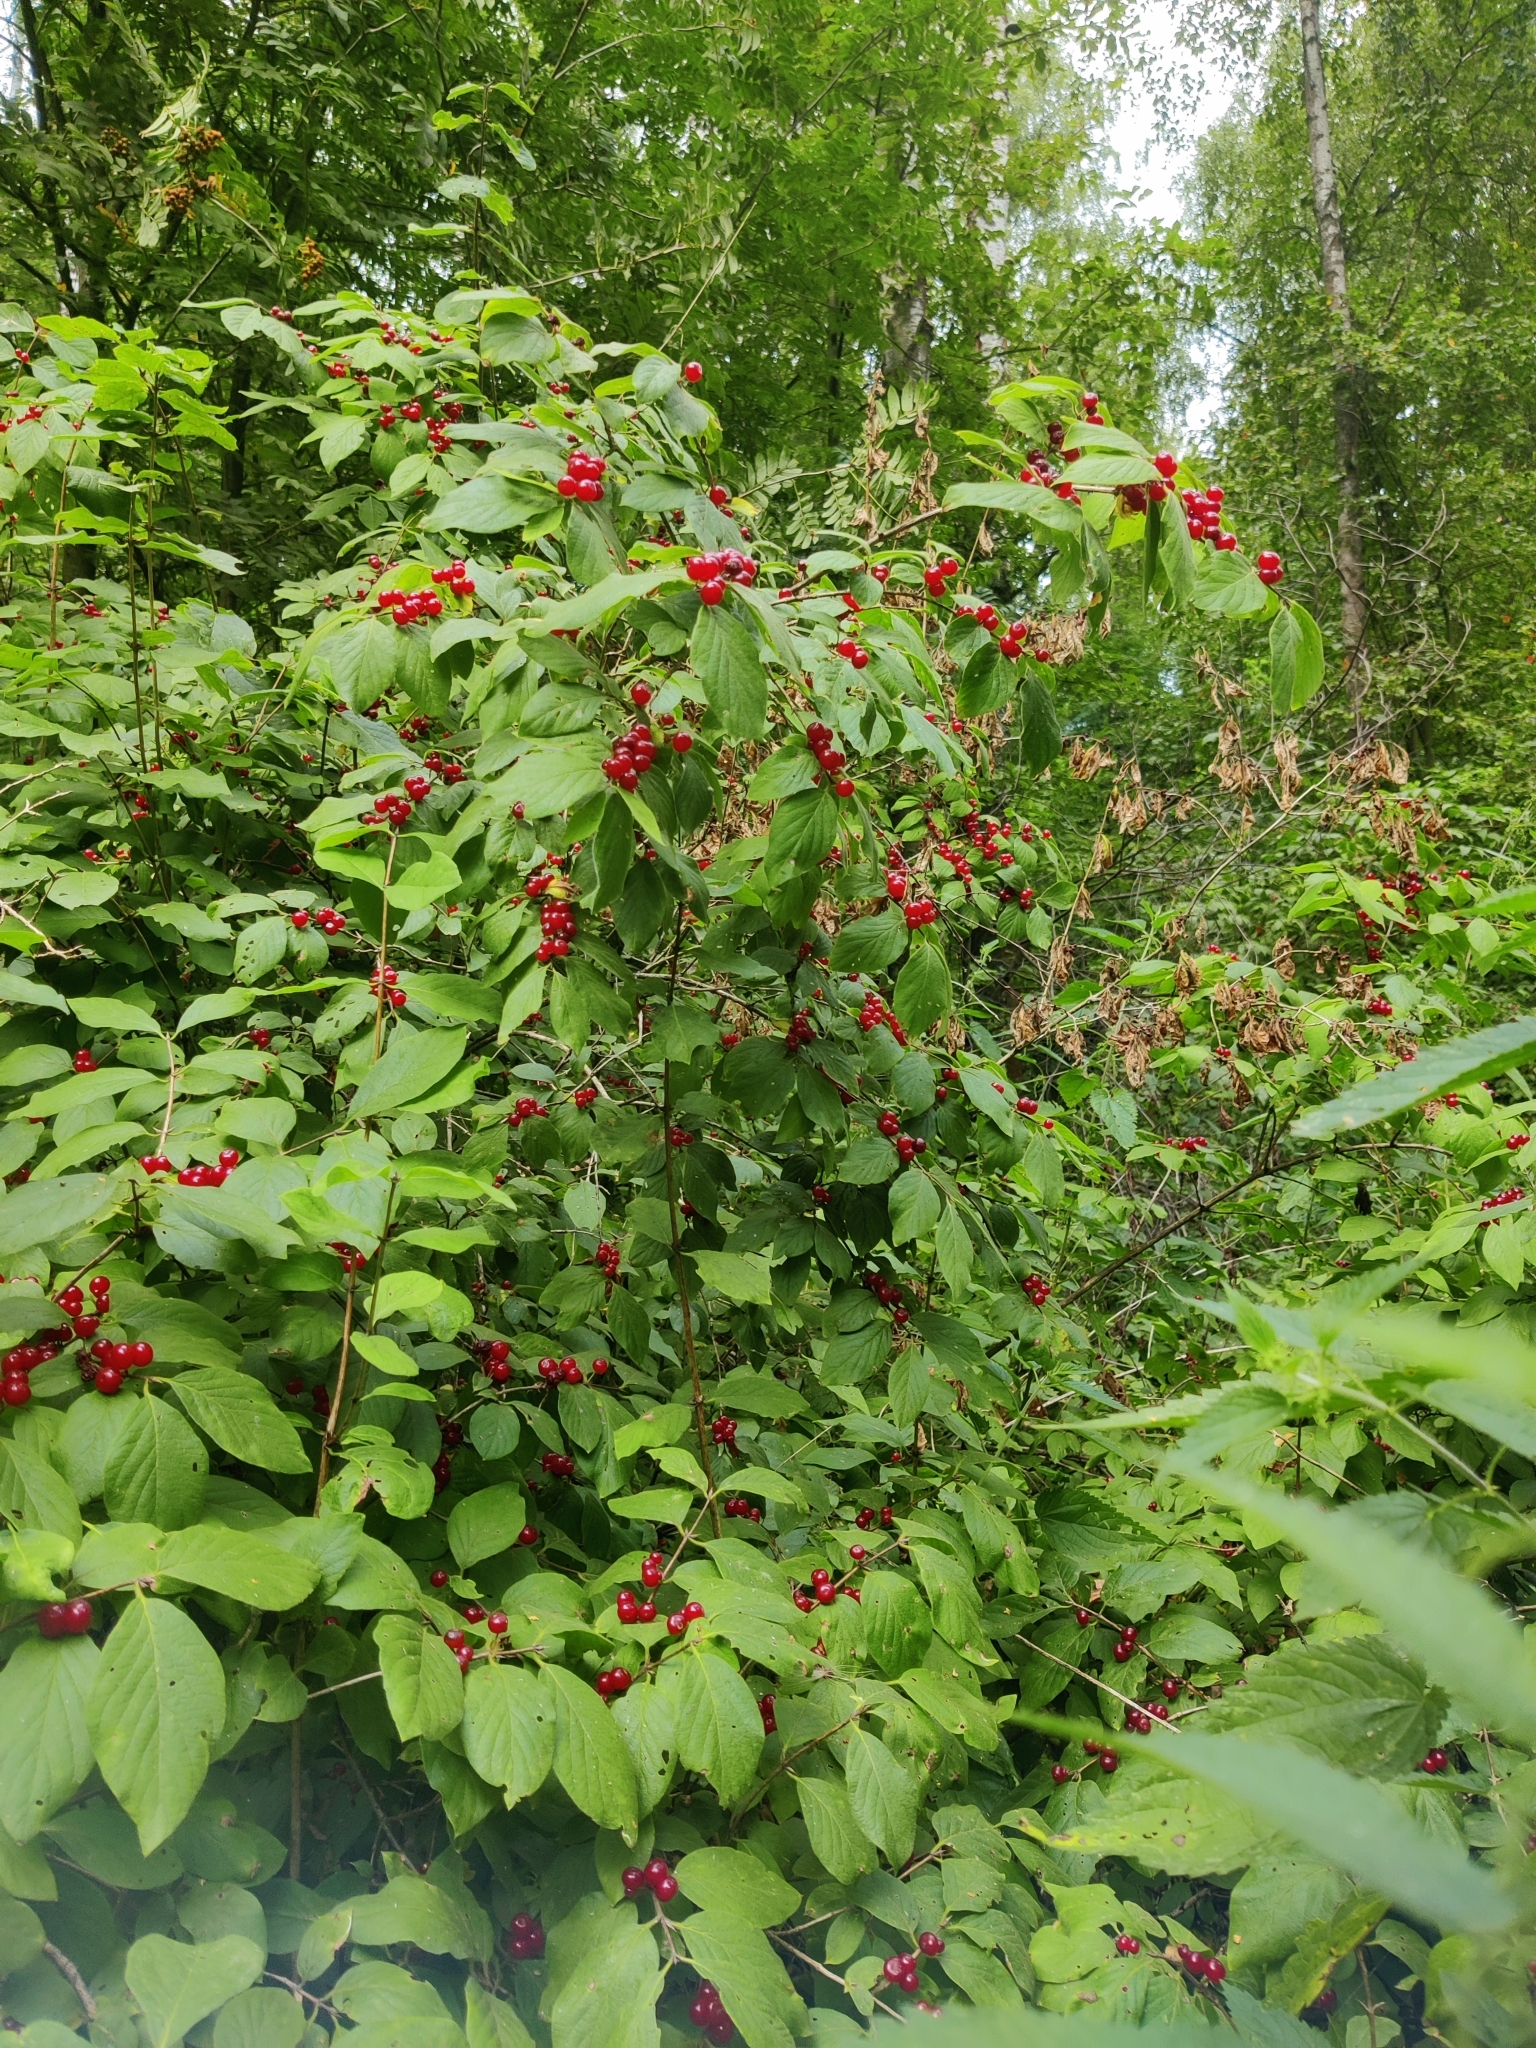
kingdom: Plantae
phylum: Tracheophyta
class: Magnoliopsida
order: Dipsacales
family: Caprifoliaceae
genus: Lonicera
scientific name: Lonicera xylosteum
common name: Fly honeysuckle
